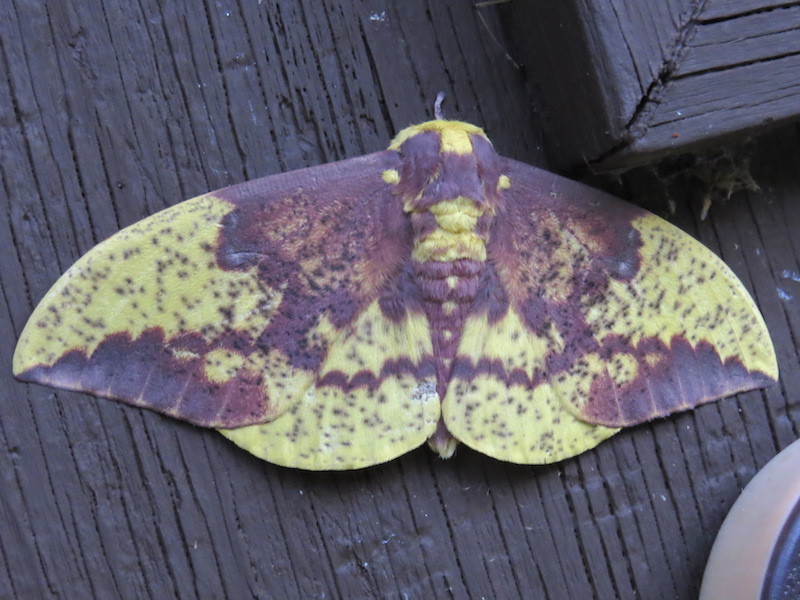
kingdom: Animalia
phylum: Arthropoda
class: Insecta
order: Lepidoptera
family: Saturniidae
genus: Eacles
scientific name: Eacles imperialis
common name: Imperial moth
